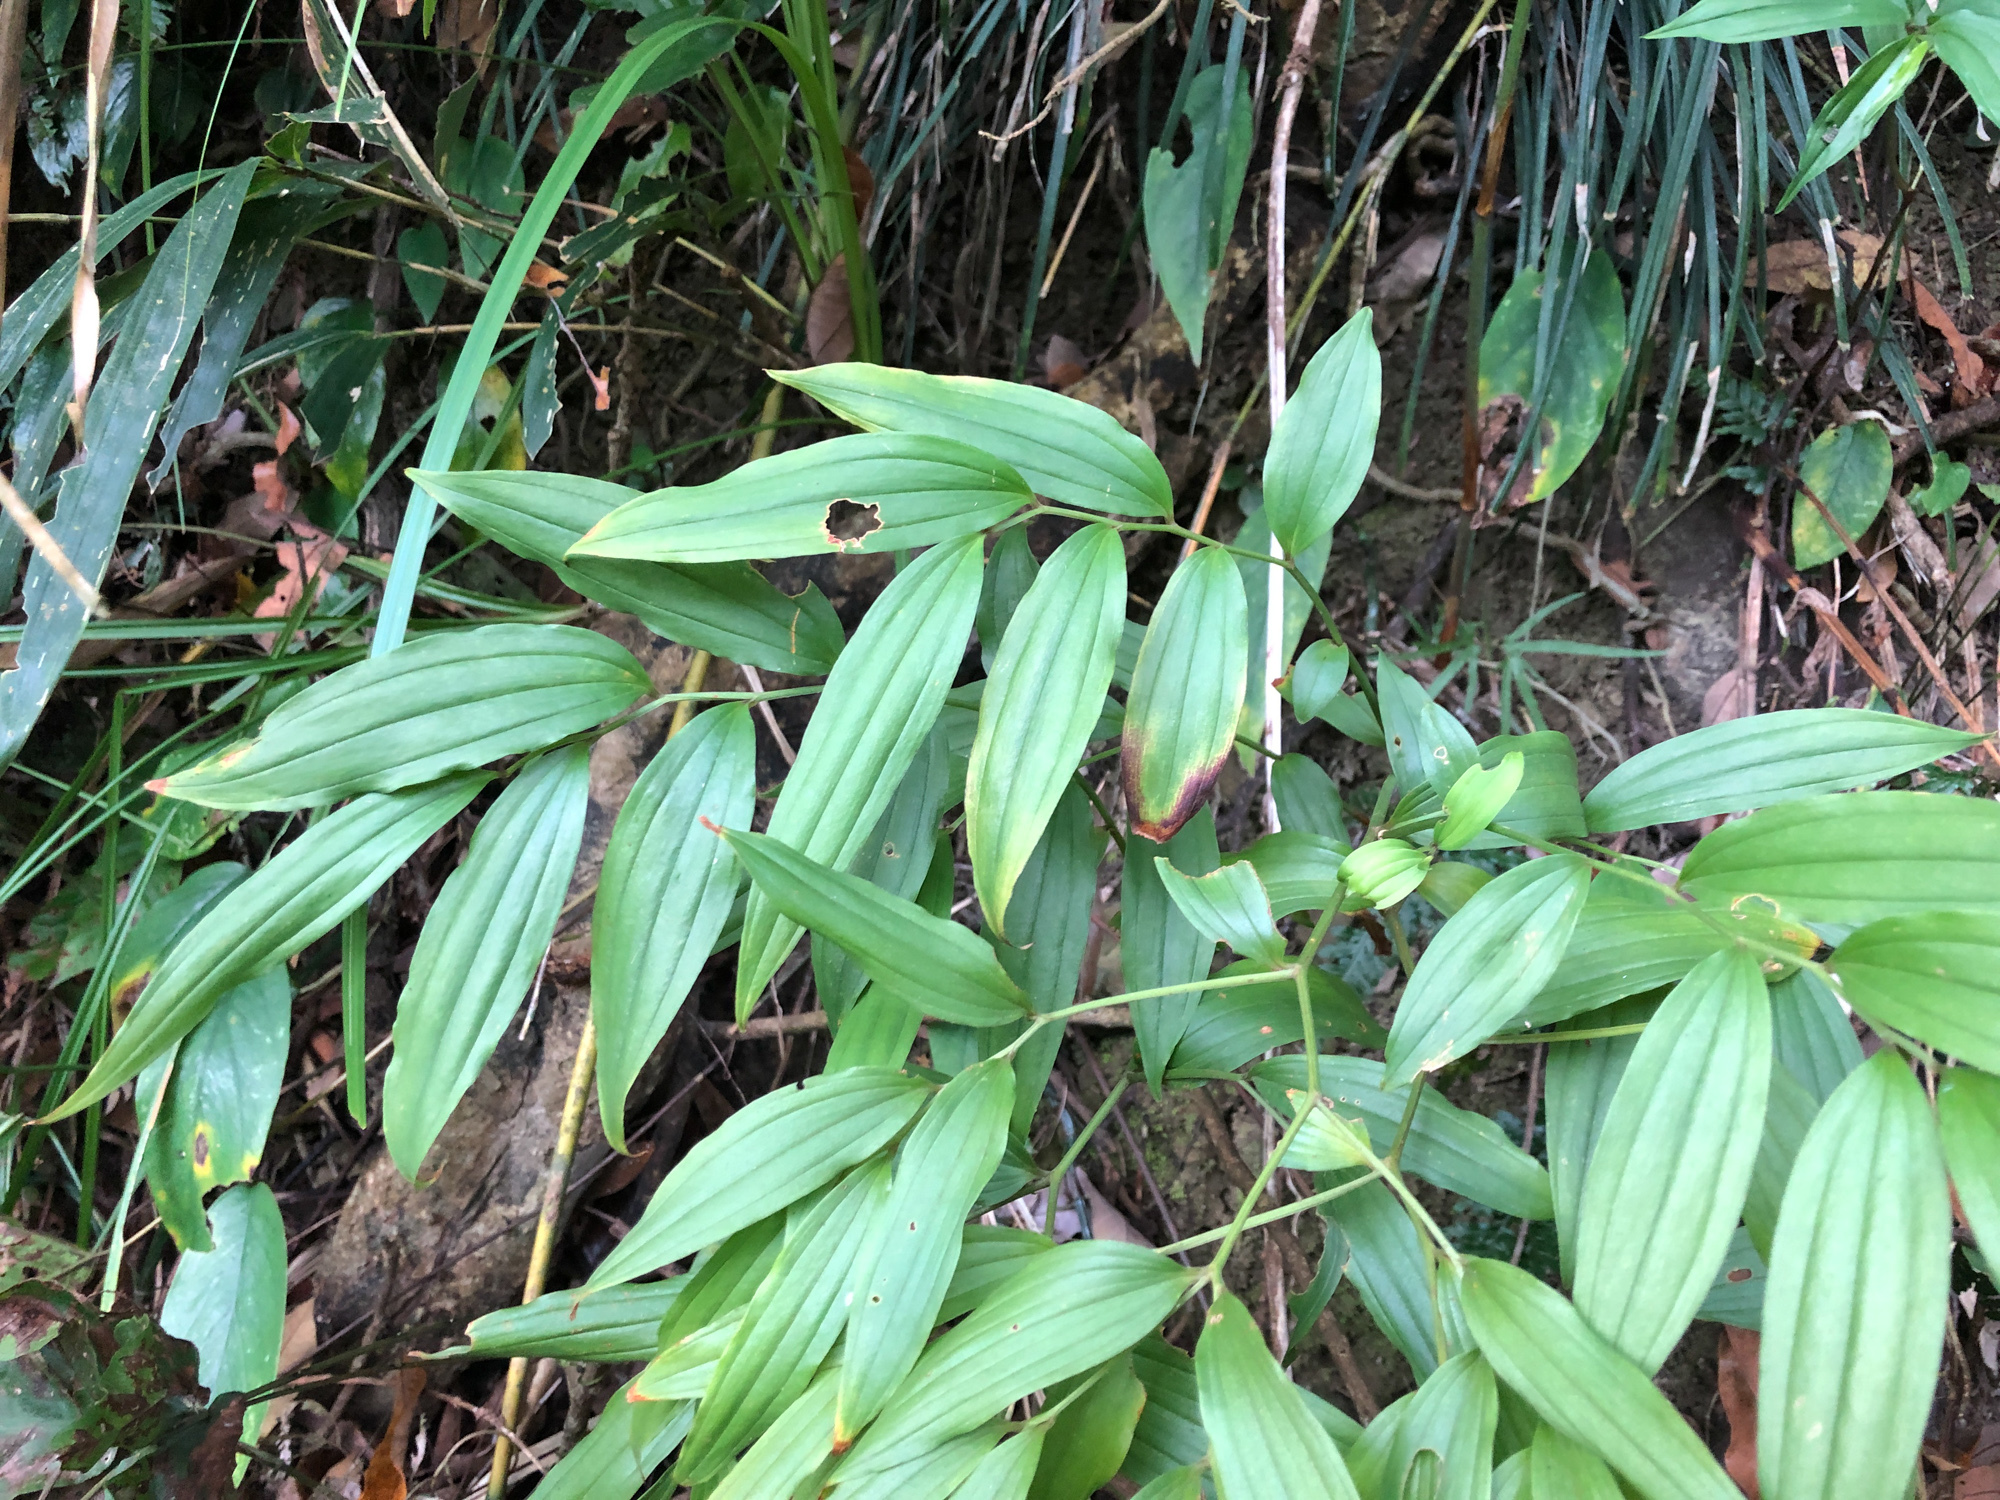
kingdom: Plantae
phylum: Tracheophyta
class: Liliopsida
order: Liliales
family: Colchicaceae
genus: Disporum
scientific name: Disporum kawakamii
